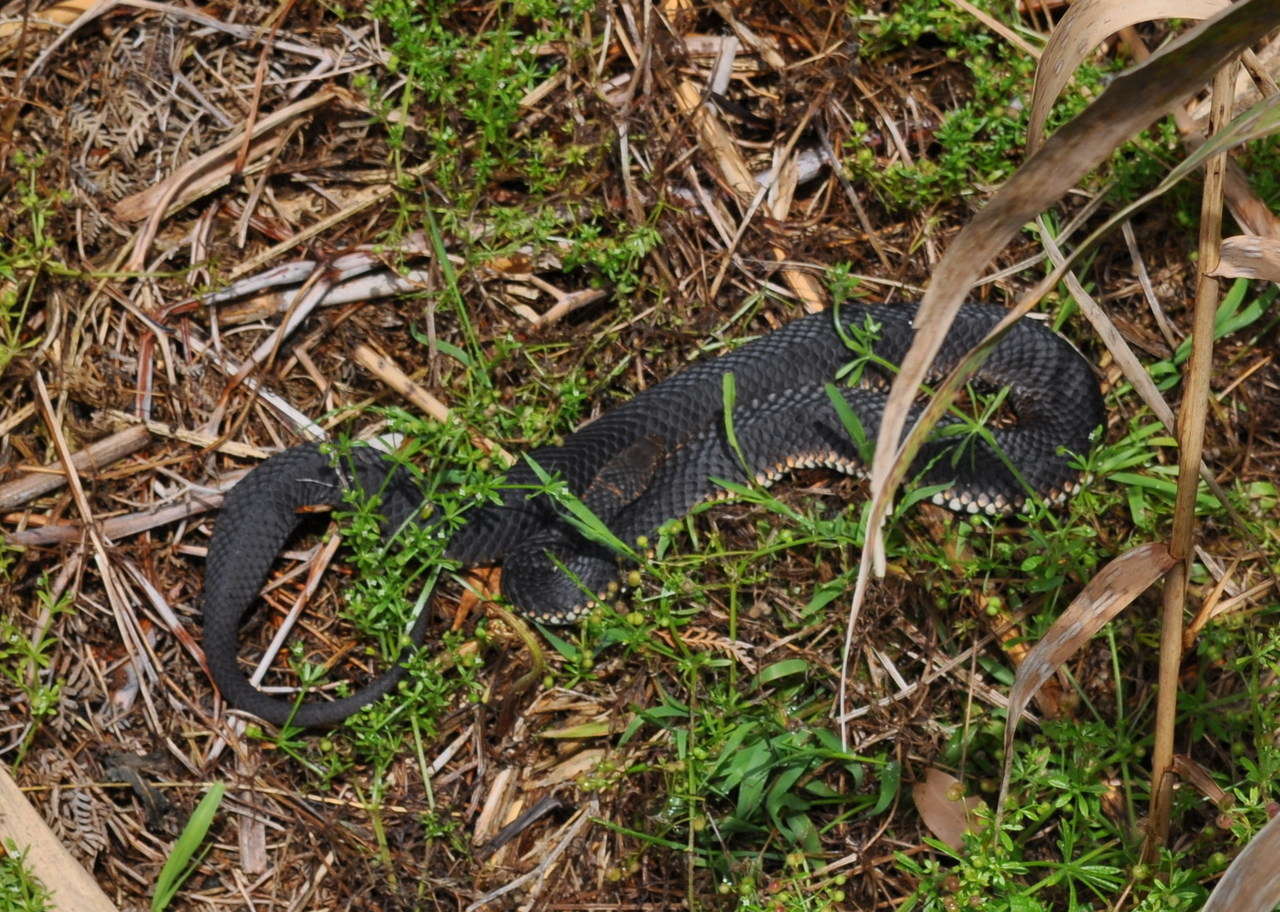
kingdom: Animalia
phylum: Chordata
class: Squamata
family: Elapidae
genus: Austrelaps
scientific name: Austrelaps superbus
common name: Copperhead snake
